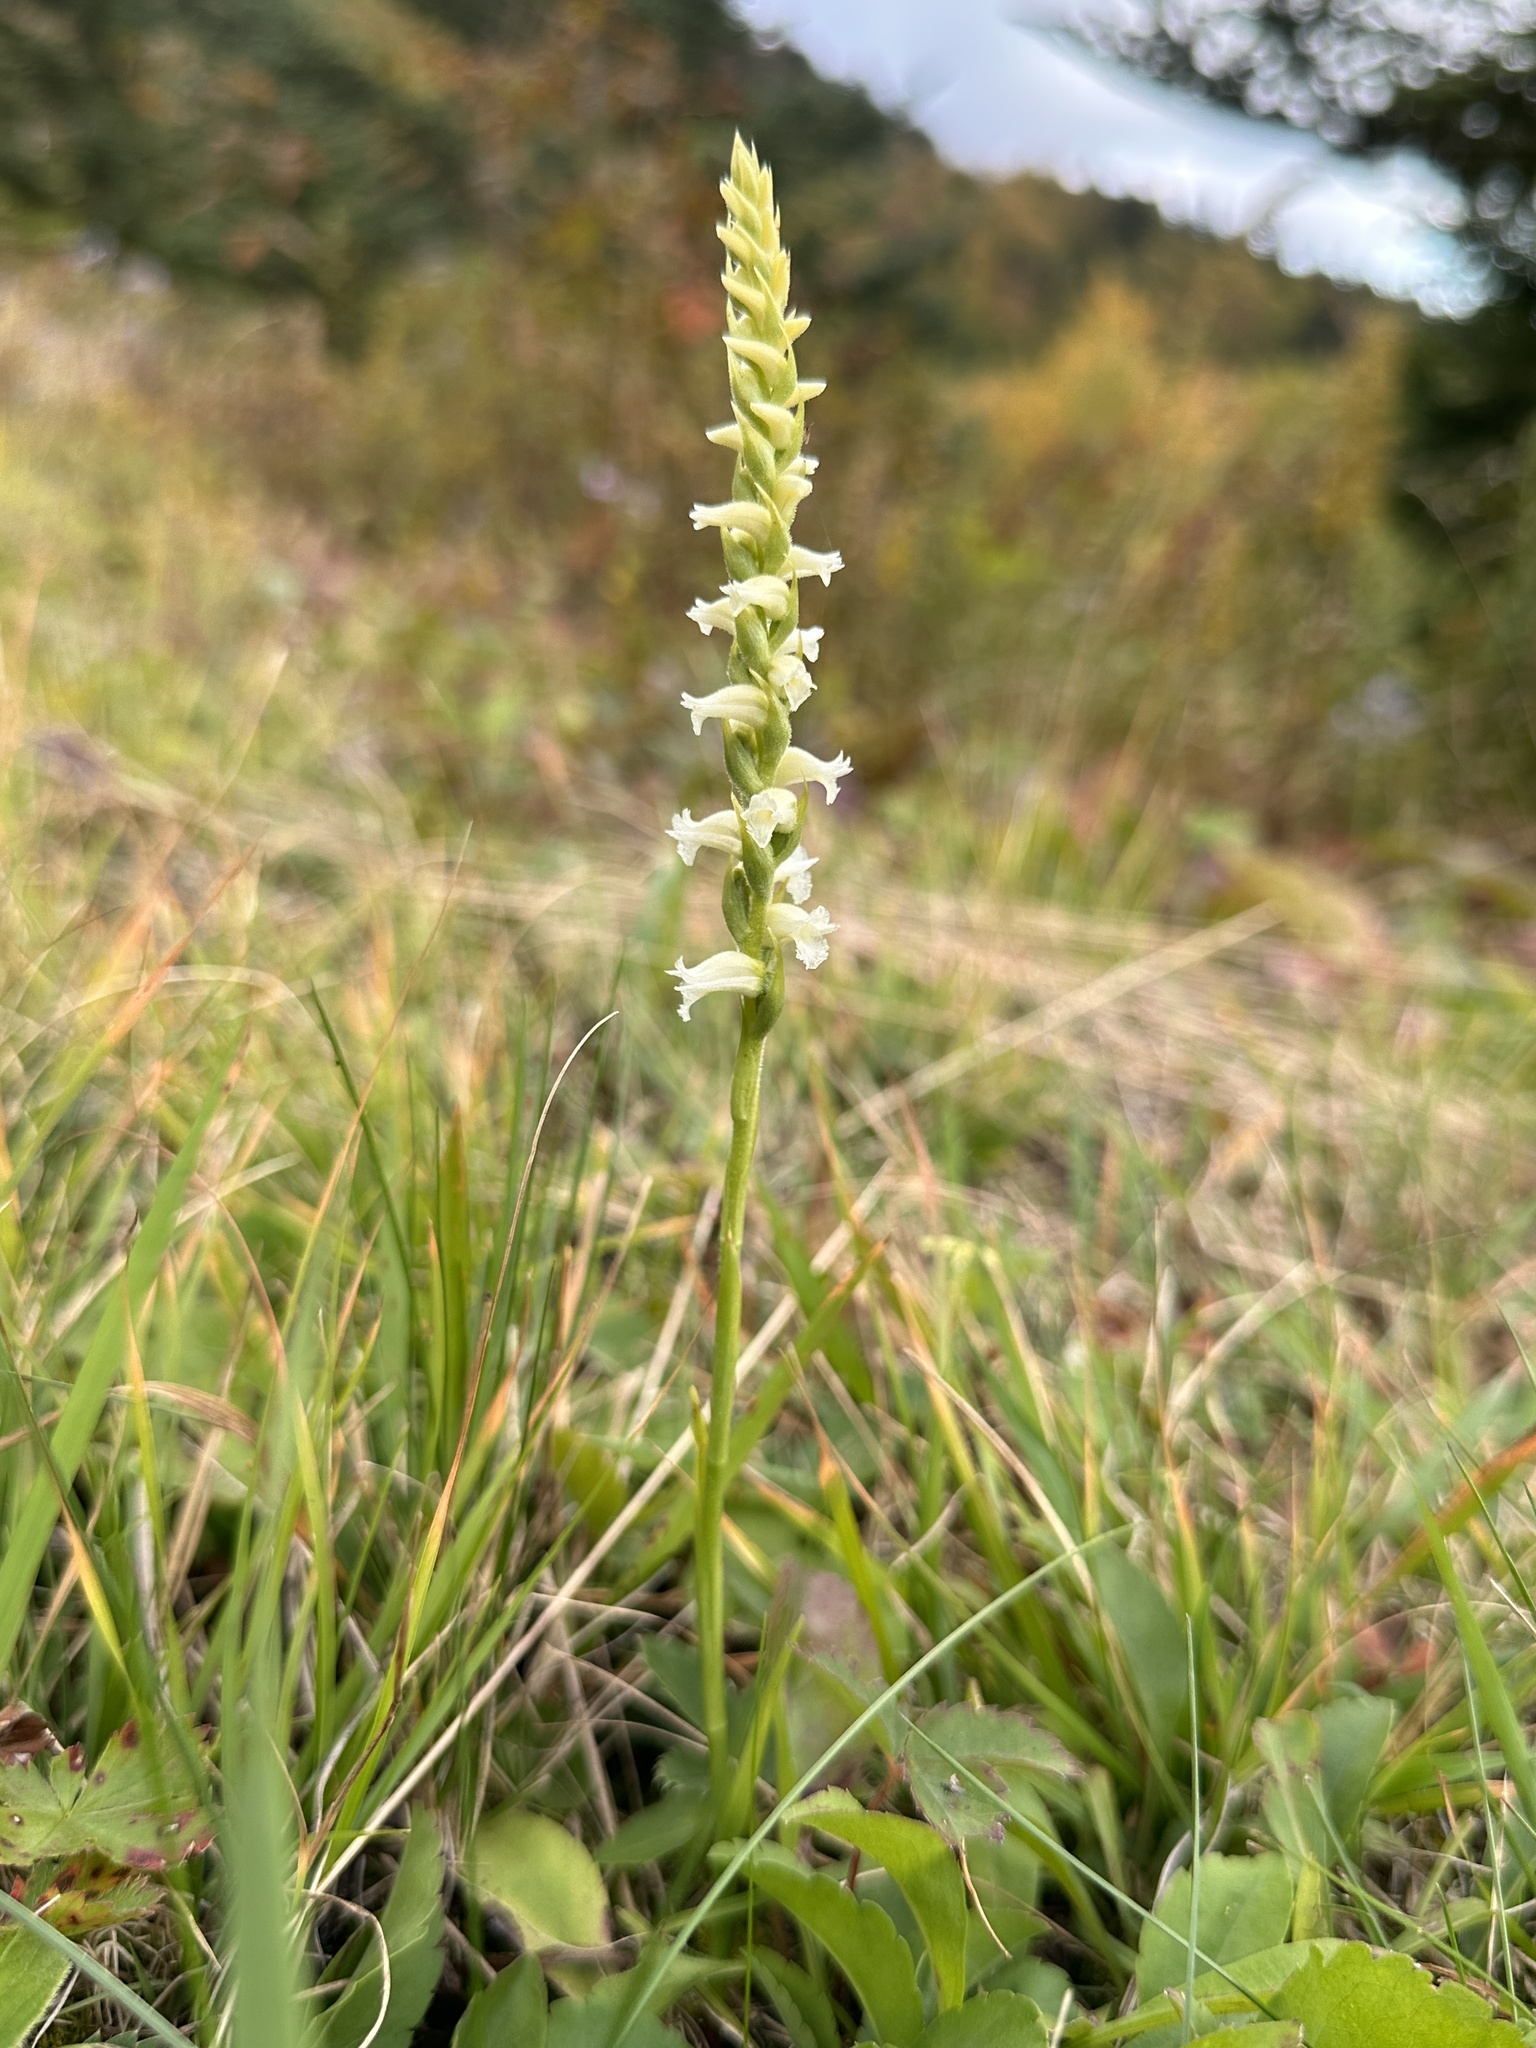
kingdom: Plantae
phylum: Tracheophyta
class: Liliopsida
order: Asparagales
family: Orchidaceae
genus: Spiranthes
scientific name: Spiranthes ochroleuca
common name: Yellow ladies'-tresses
